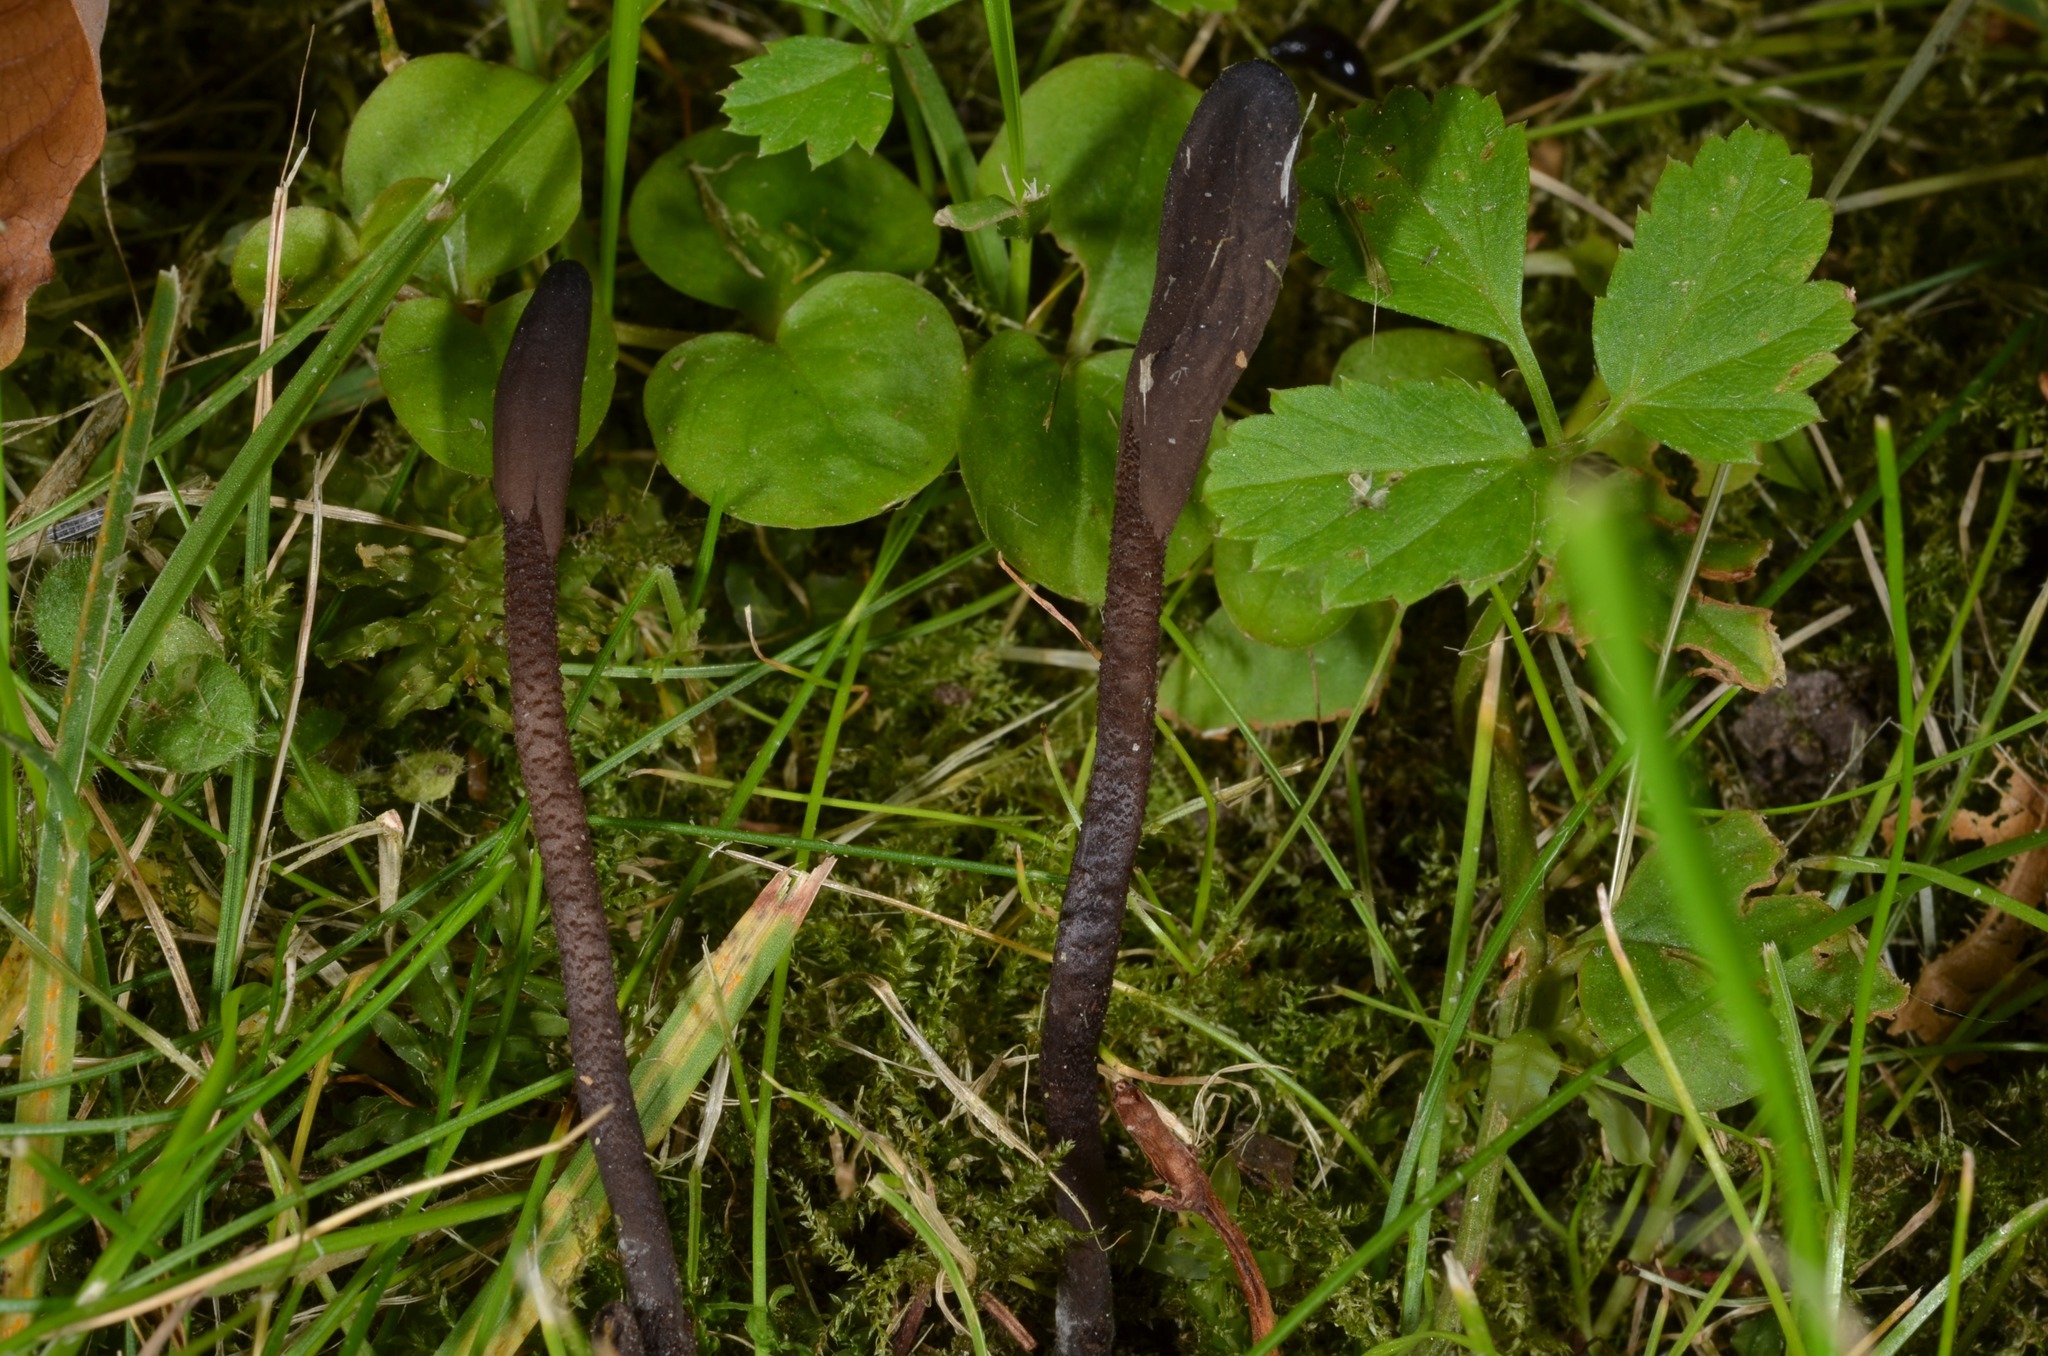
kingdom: Fungi
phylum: Ascomycota
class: Geoglossomycetes
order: Geoglossales
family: Geoglossaceae
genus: Geoglossum
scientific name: Geoglossum fallax
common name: Deceptive earthtongue
